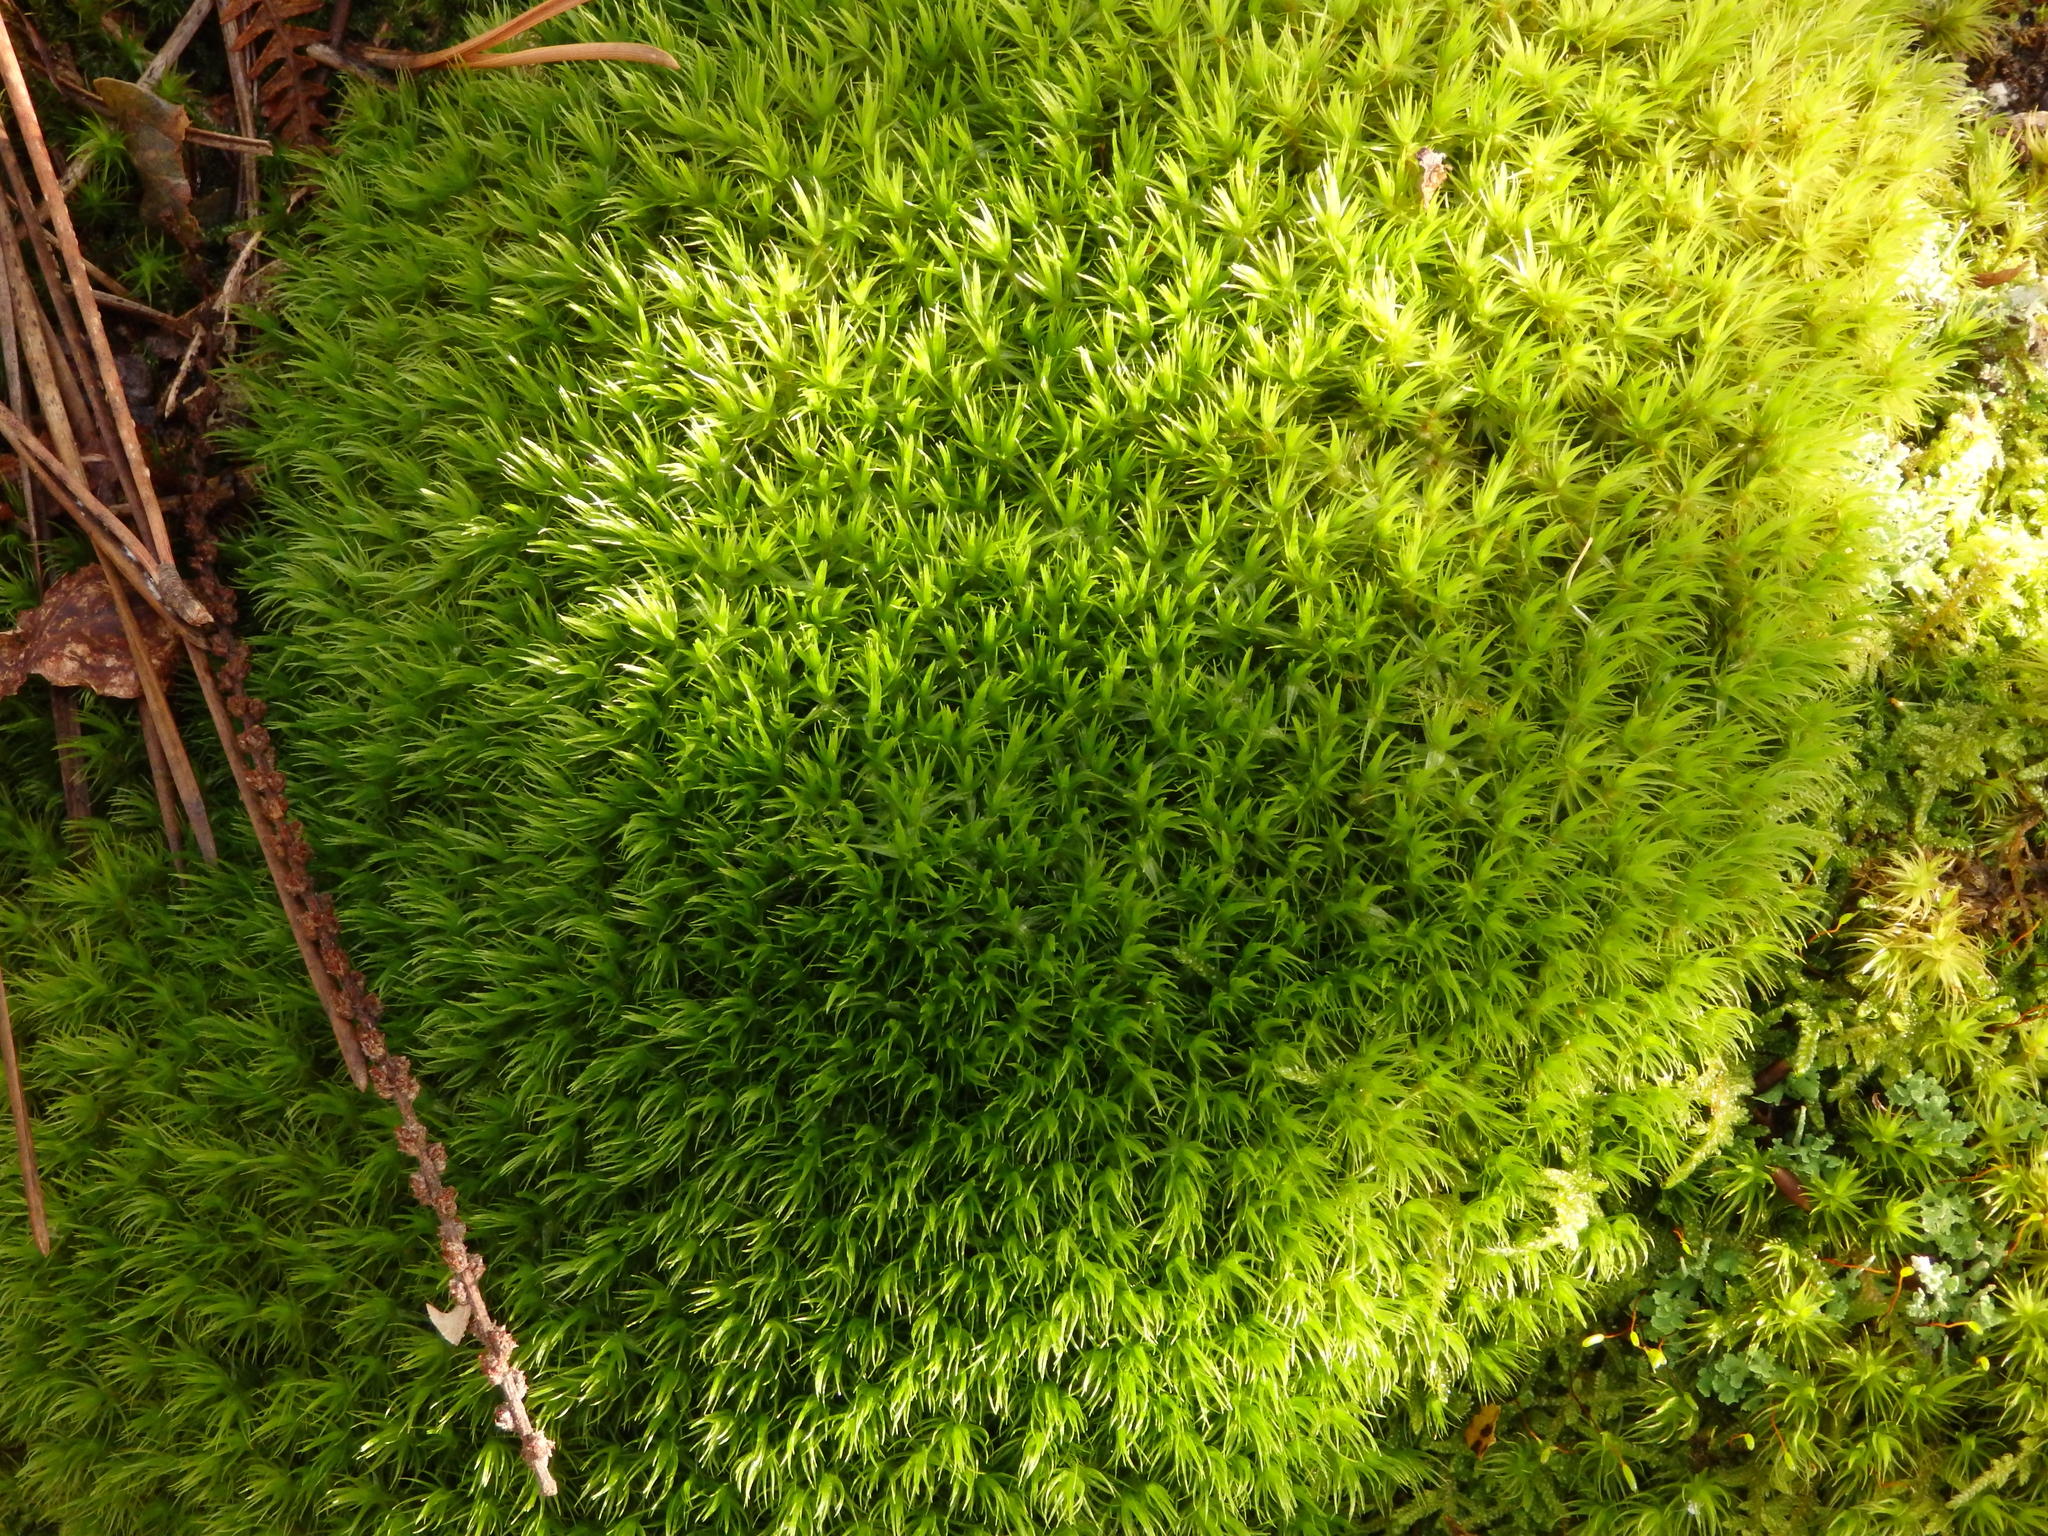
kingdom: Plantae
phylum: Bryophyta
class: Bryopsida
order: Dicranales
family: Dicranaceae
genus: Dicranum
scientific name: Dicranum scoparium
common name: Broom fork-moss
